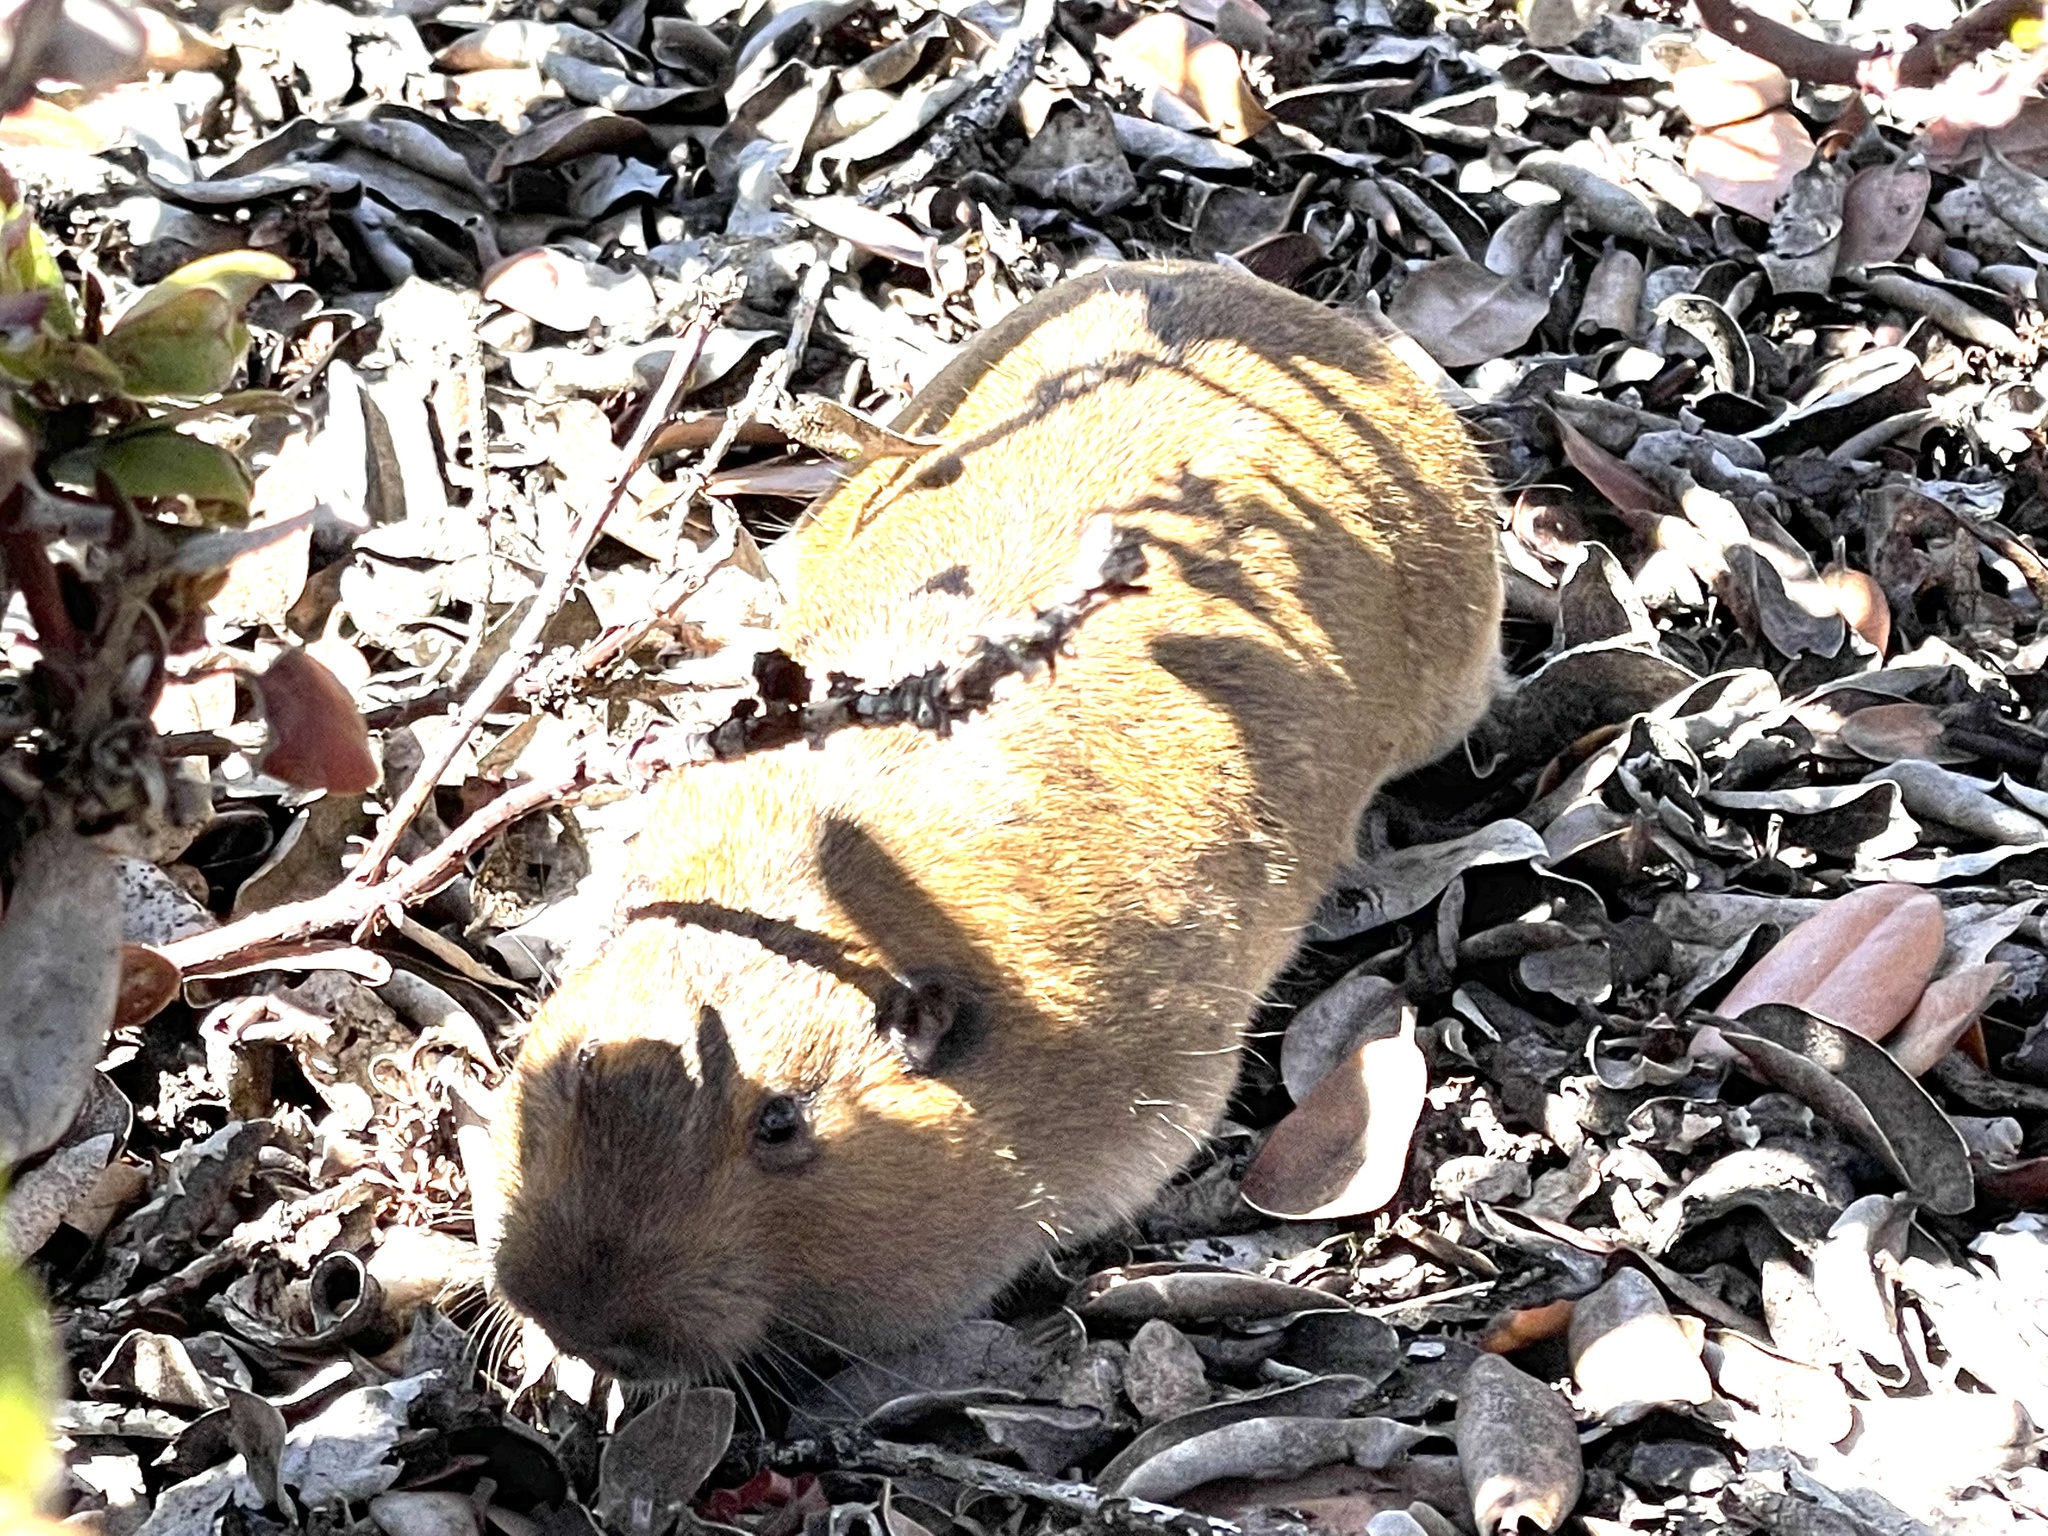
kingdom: Animalia
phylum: Chordata
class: Mammalia
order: Rodentia
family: Geomyidae
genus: Thomomys
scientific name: Thomomys bottae
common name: Botta's pocket gopher
